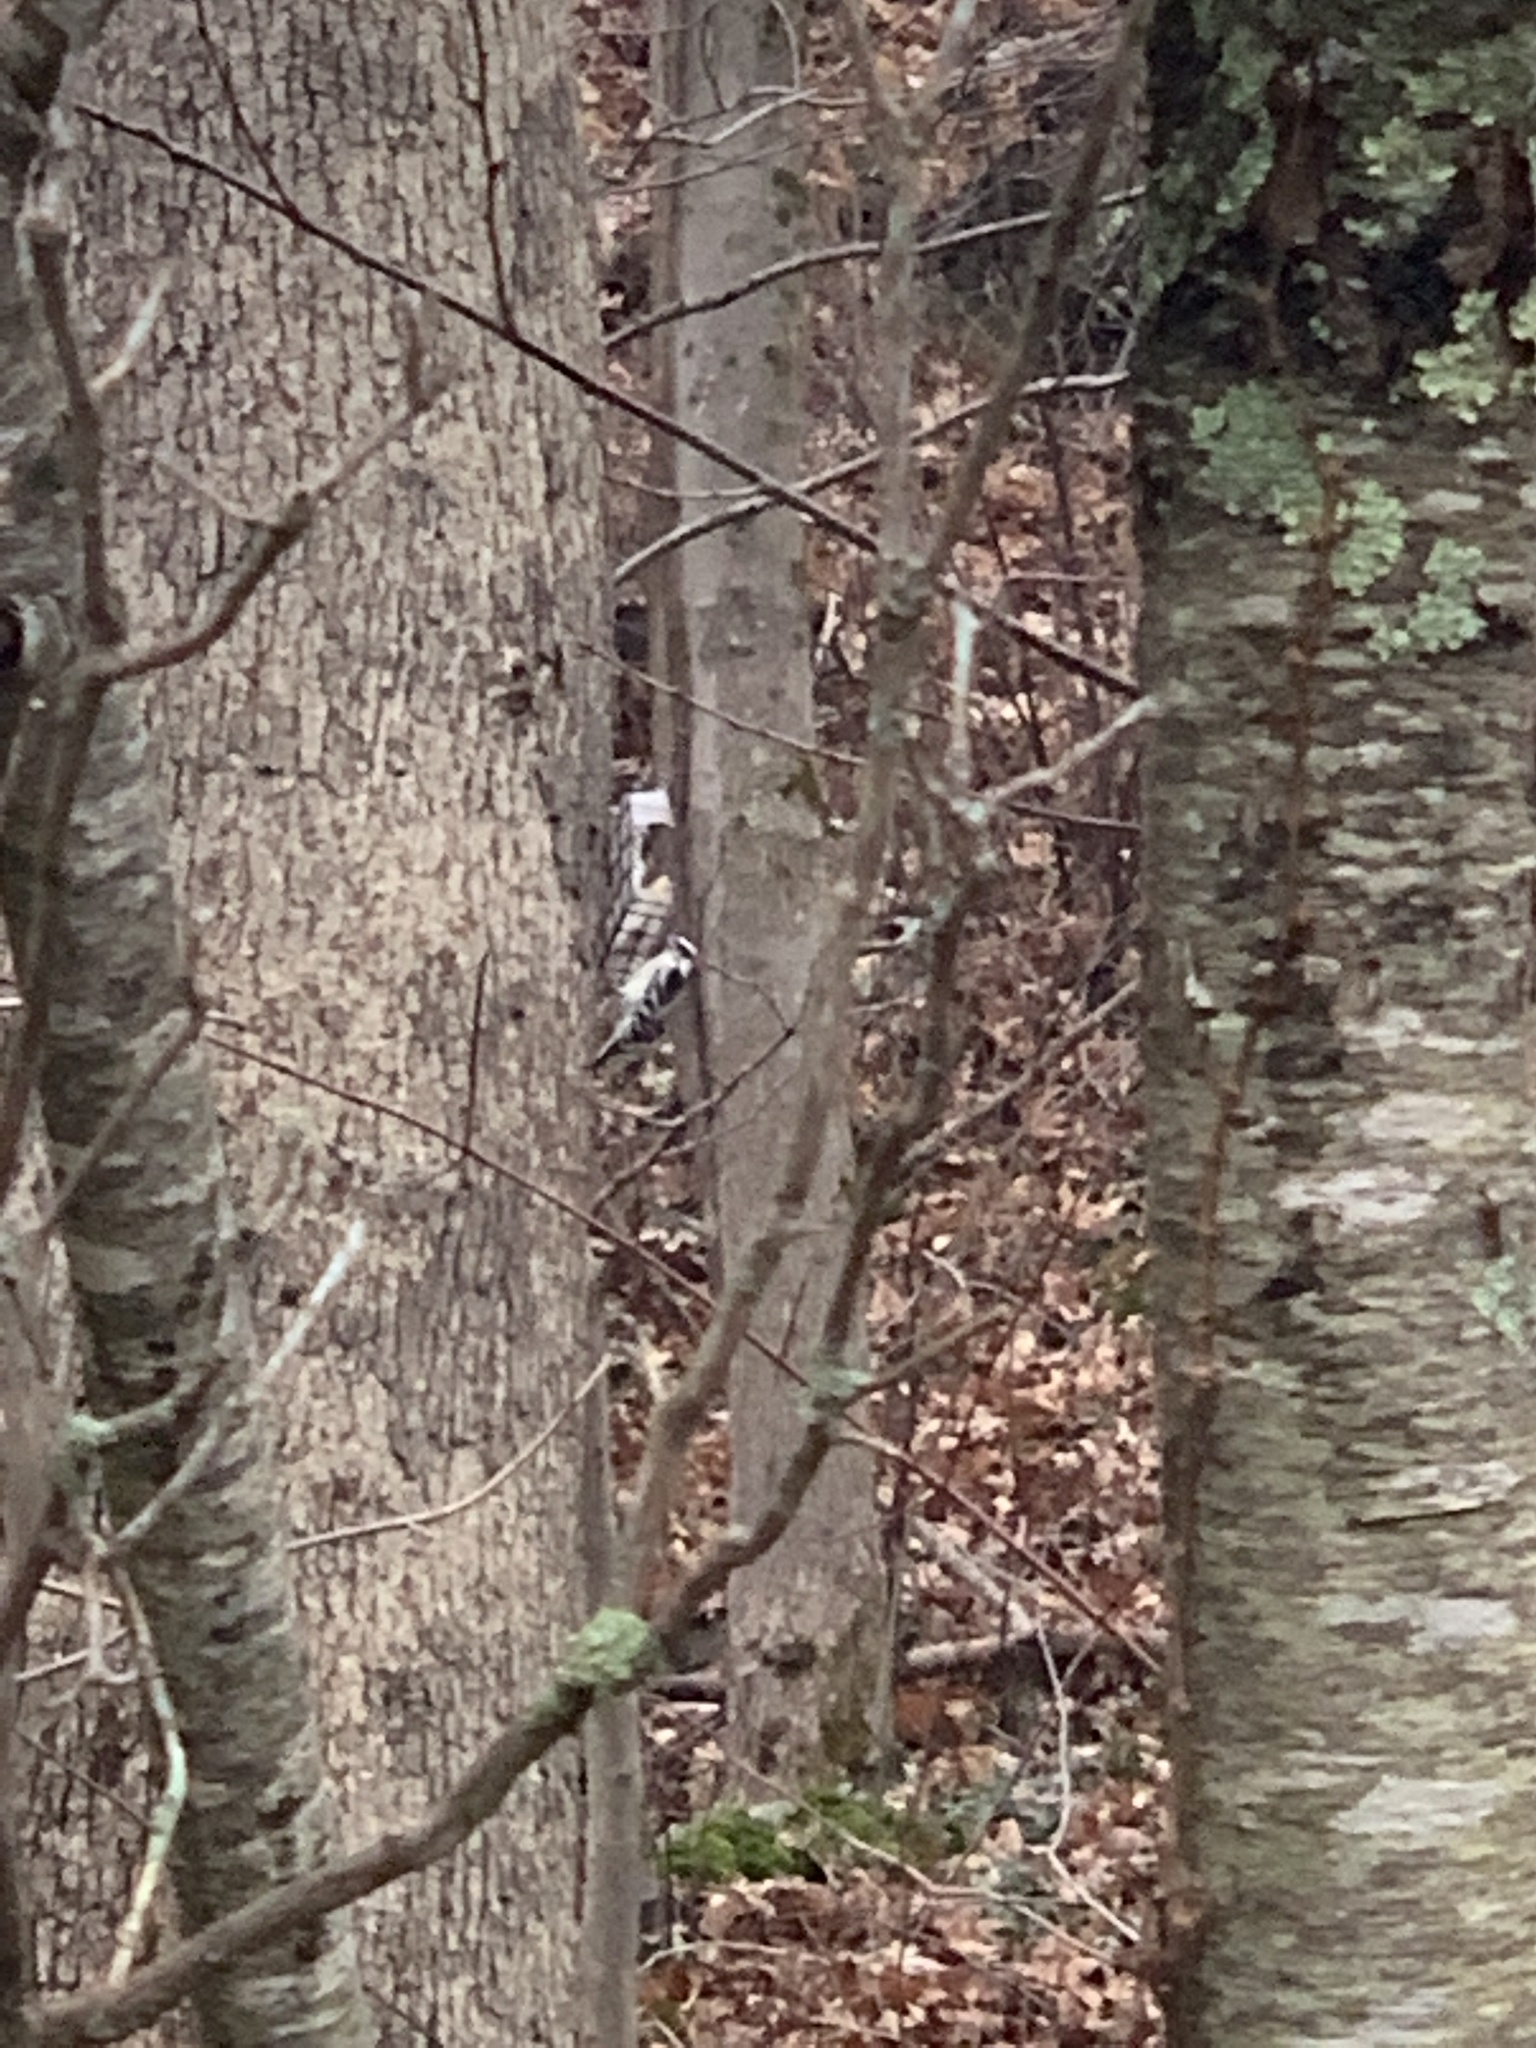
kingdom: Animalia
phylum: Chordata
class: Aves
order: Piciformes
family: Picidae
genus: Dryobates
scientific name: Dryobates pubescens
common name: Downy woodpecker
